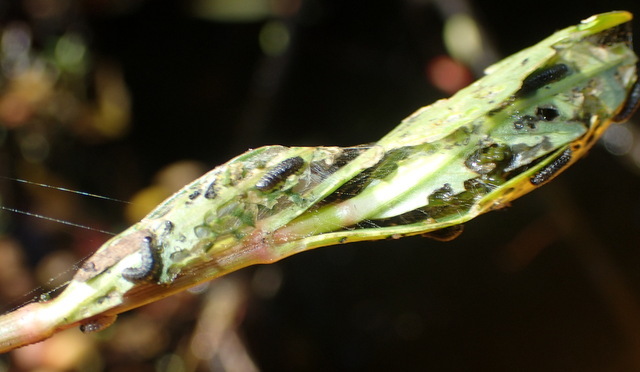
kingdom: Animalia
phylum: Arthropoda
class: Insecta
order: Coleoptera
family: Chrysomelidae
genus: Agasicles
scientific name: Agasicles hygrophila
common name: Alligatorweed flea beetle
